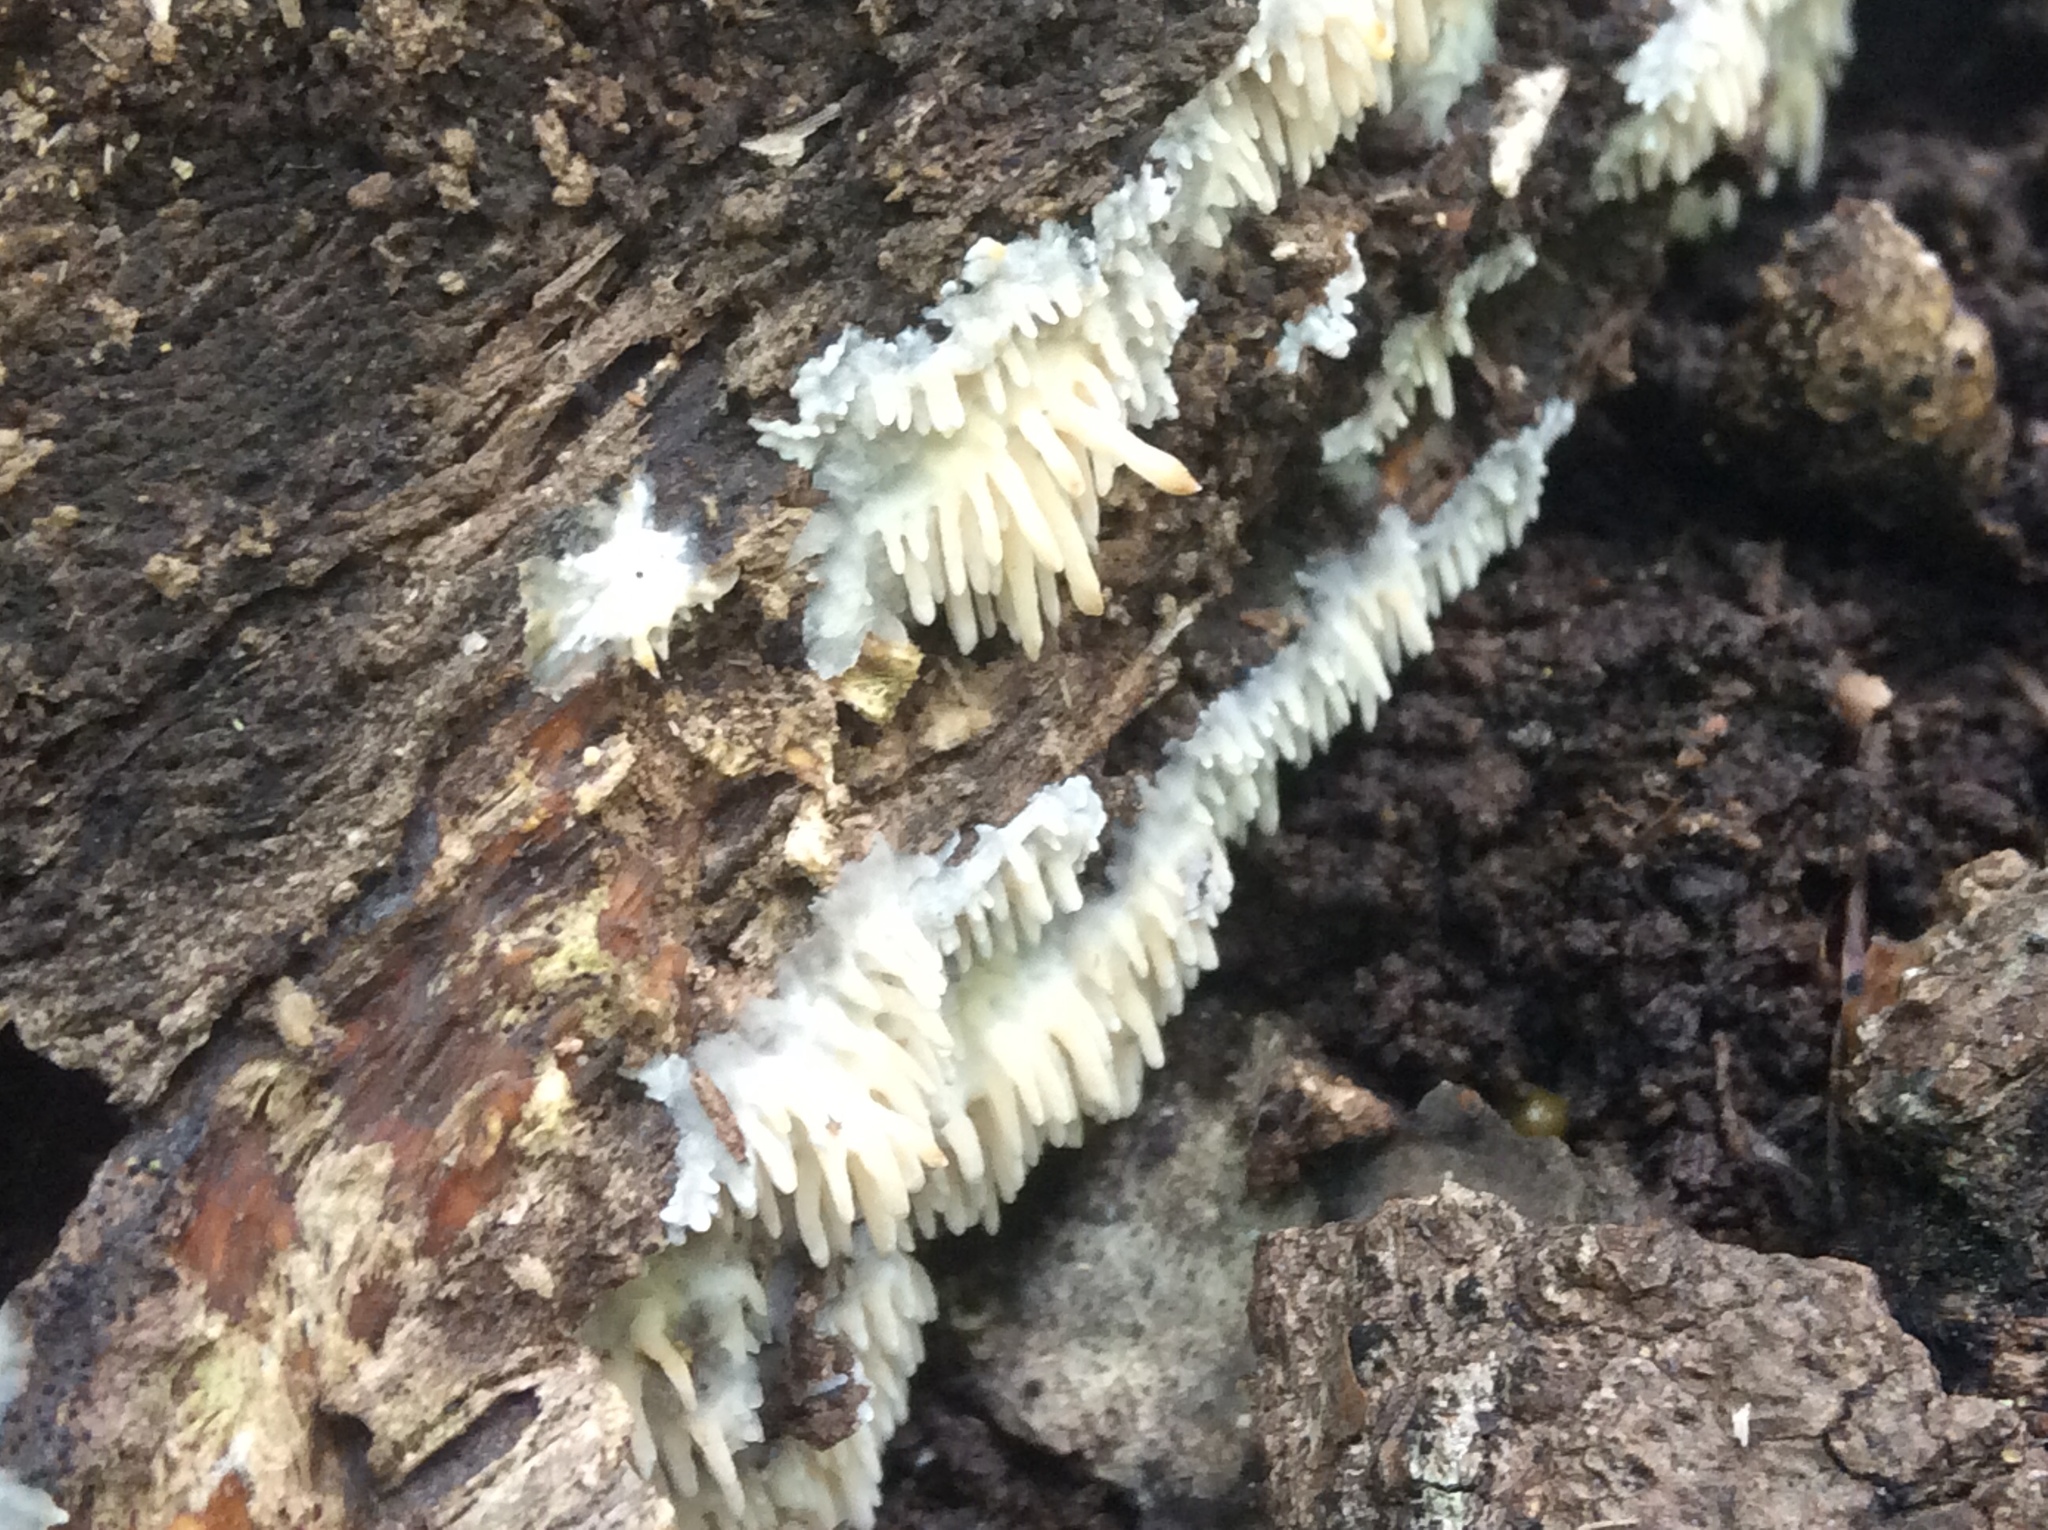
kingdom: Fungi
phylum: Basidiomycota
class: Agaricomycetes
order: Agaricales
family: Radulomycetaceae
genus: Radulomyces
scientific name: Radulomyces copelandii
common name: Asian beauty
